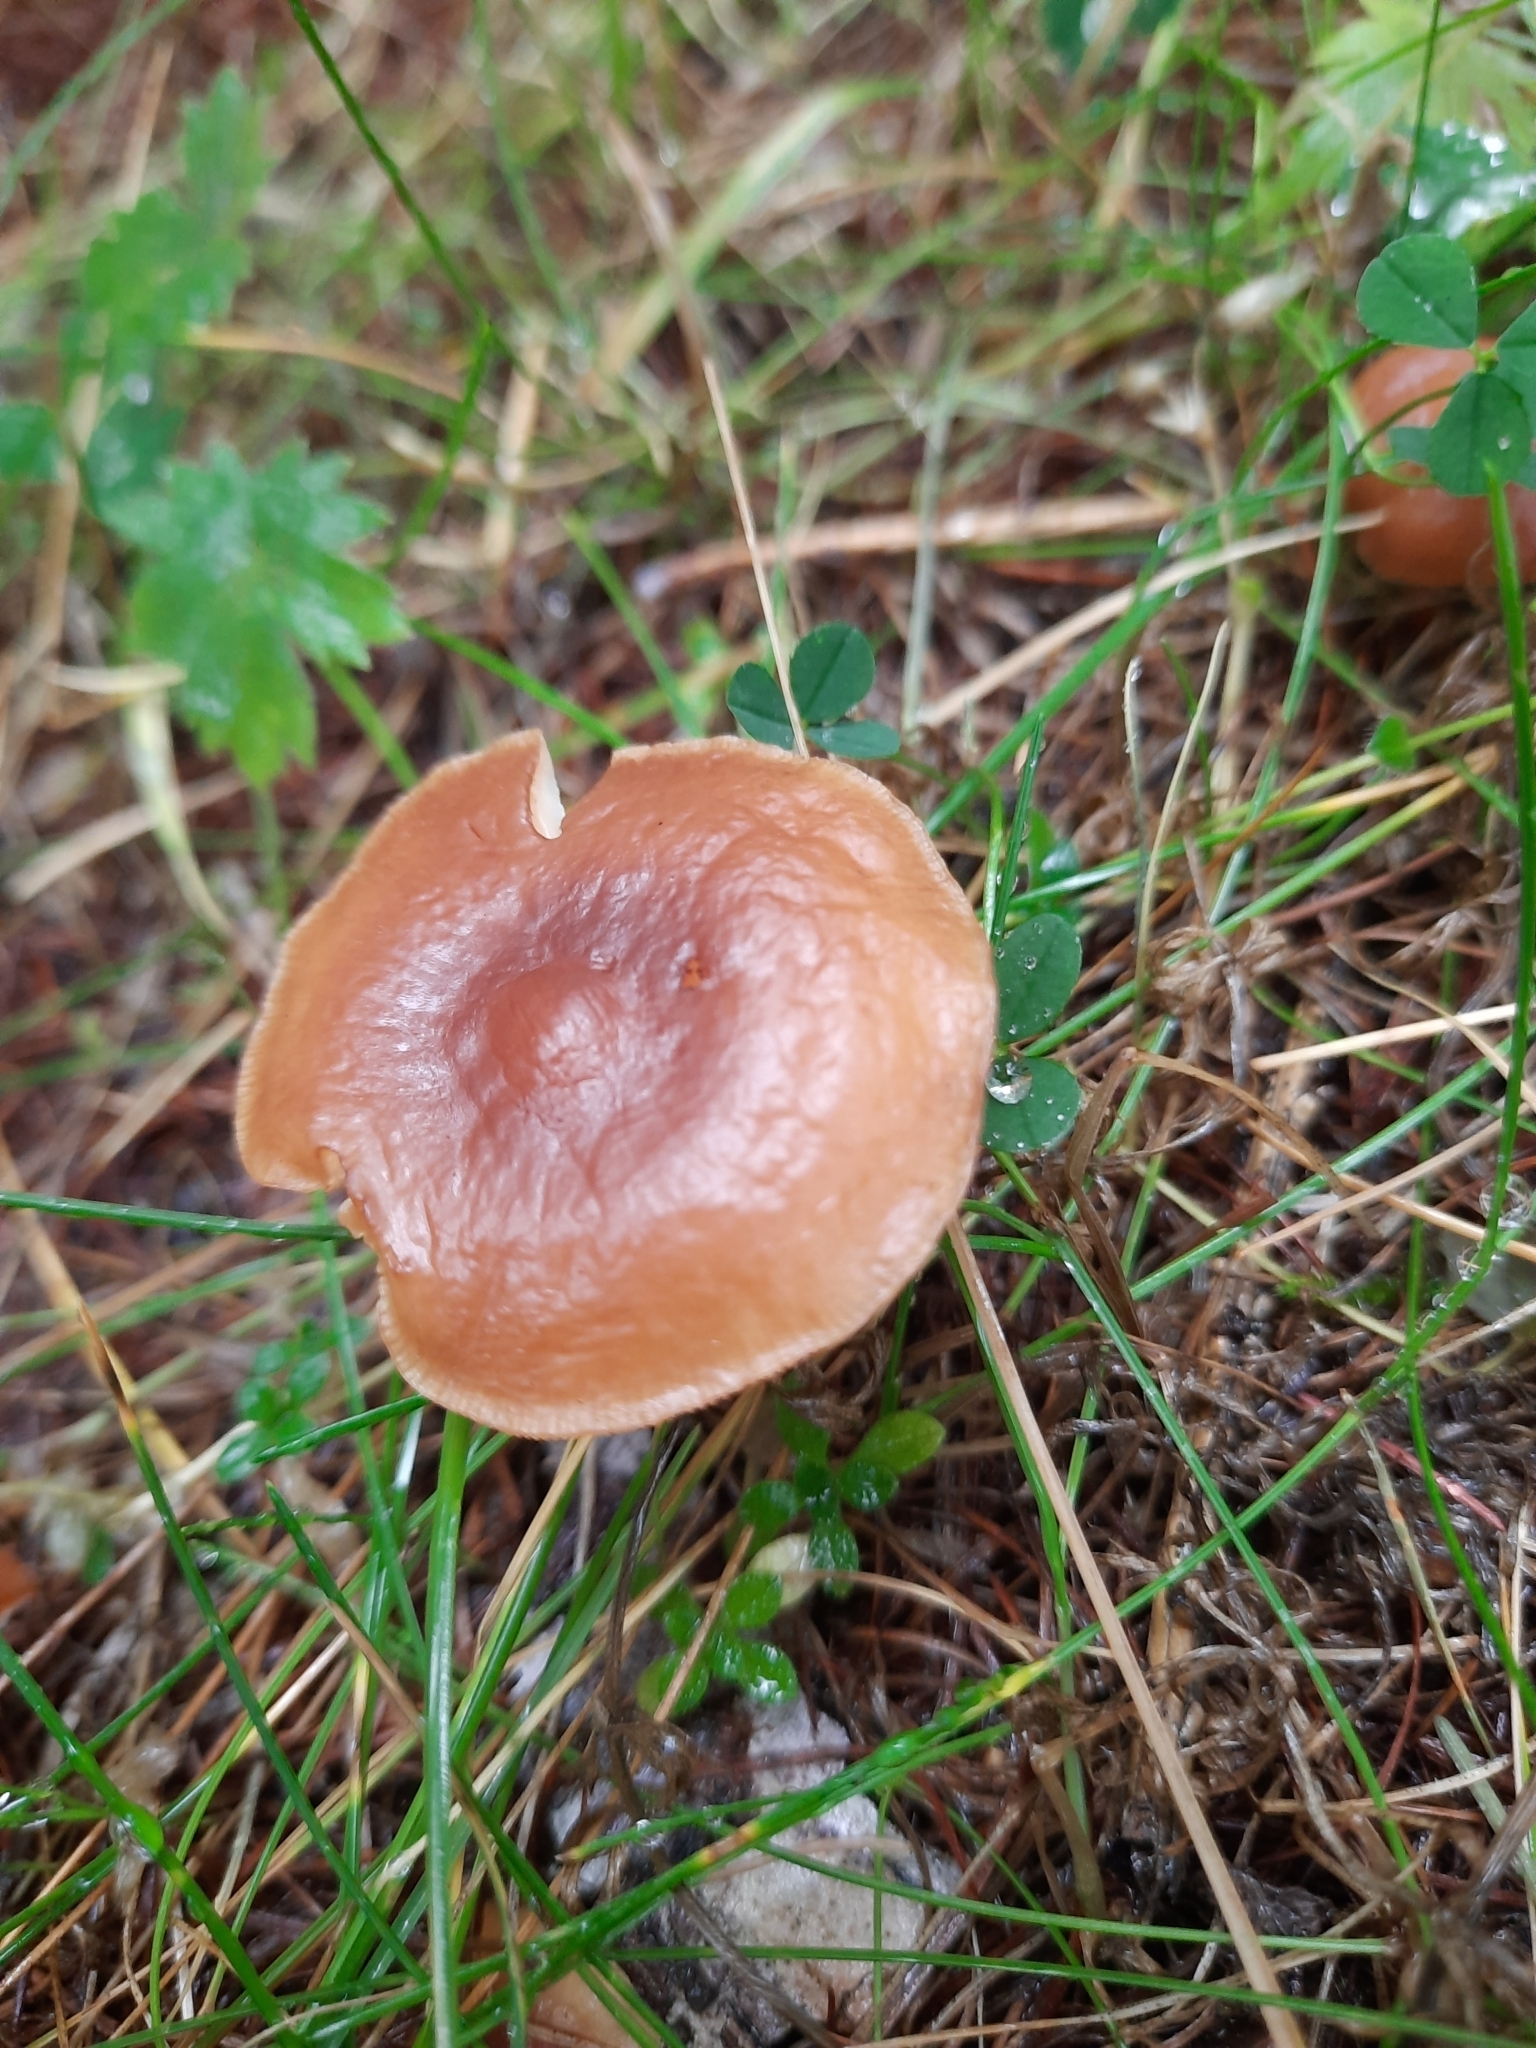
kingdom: Fungi
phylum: Basidiomycota
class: Agaricomycetes
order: Agaricales
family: Omphalotaceae
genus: Gymnopus
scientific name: Gymnopus dryophilus
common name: Penny top
